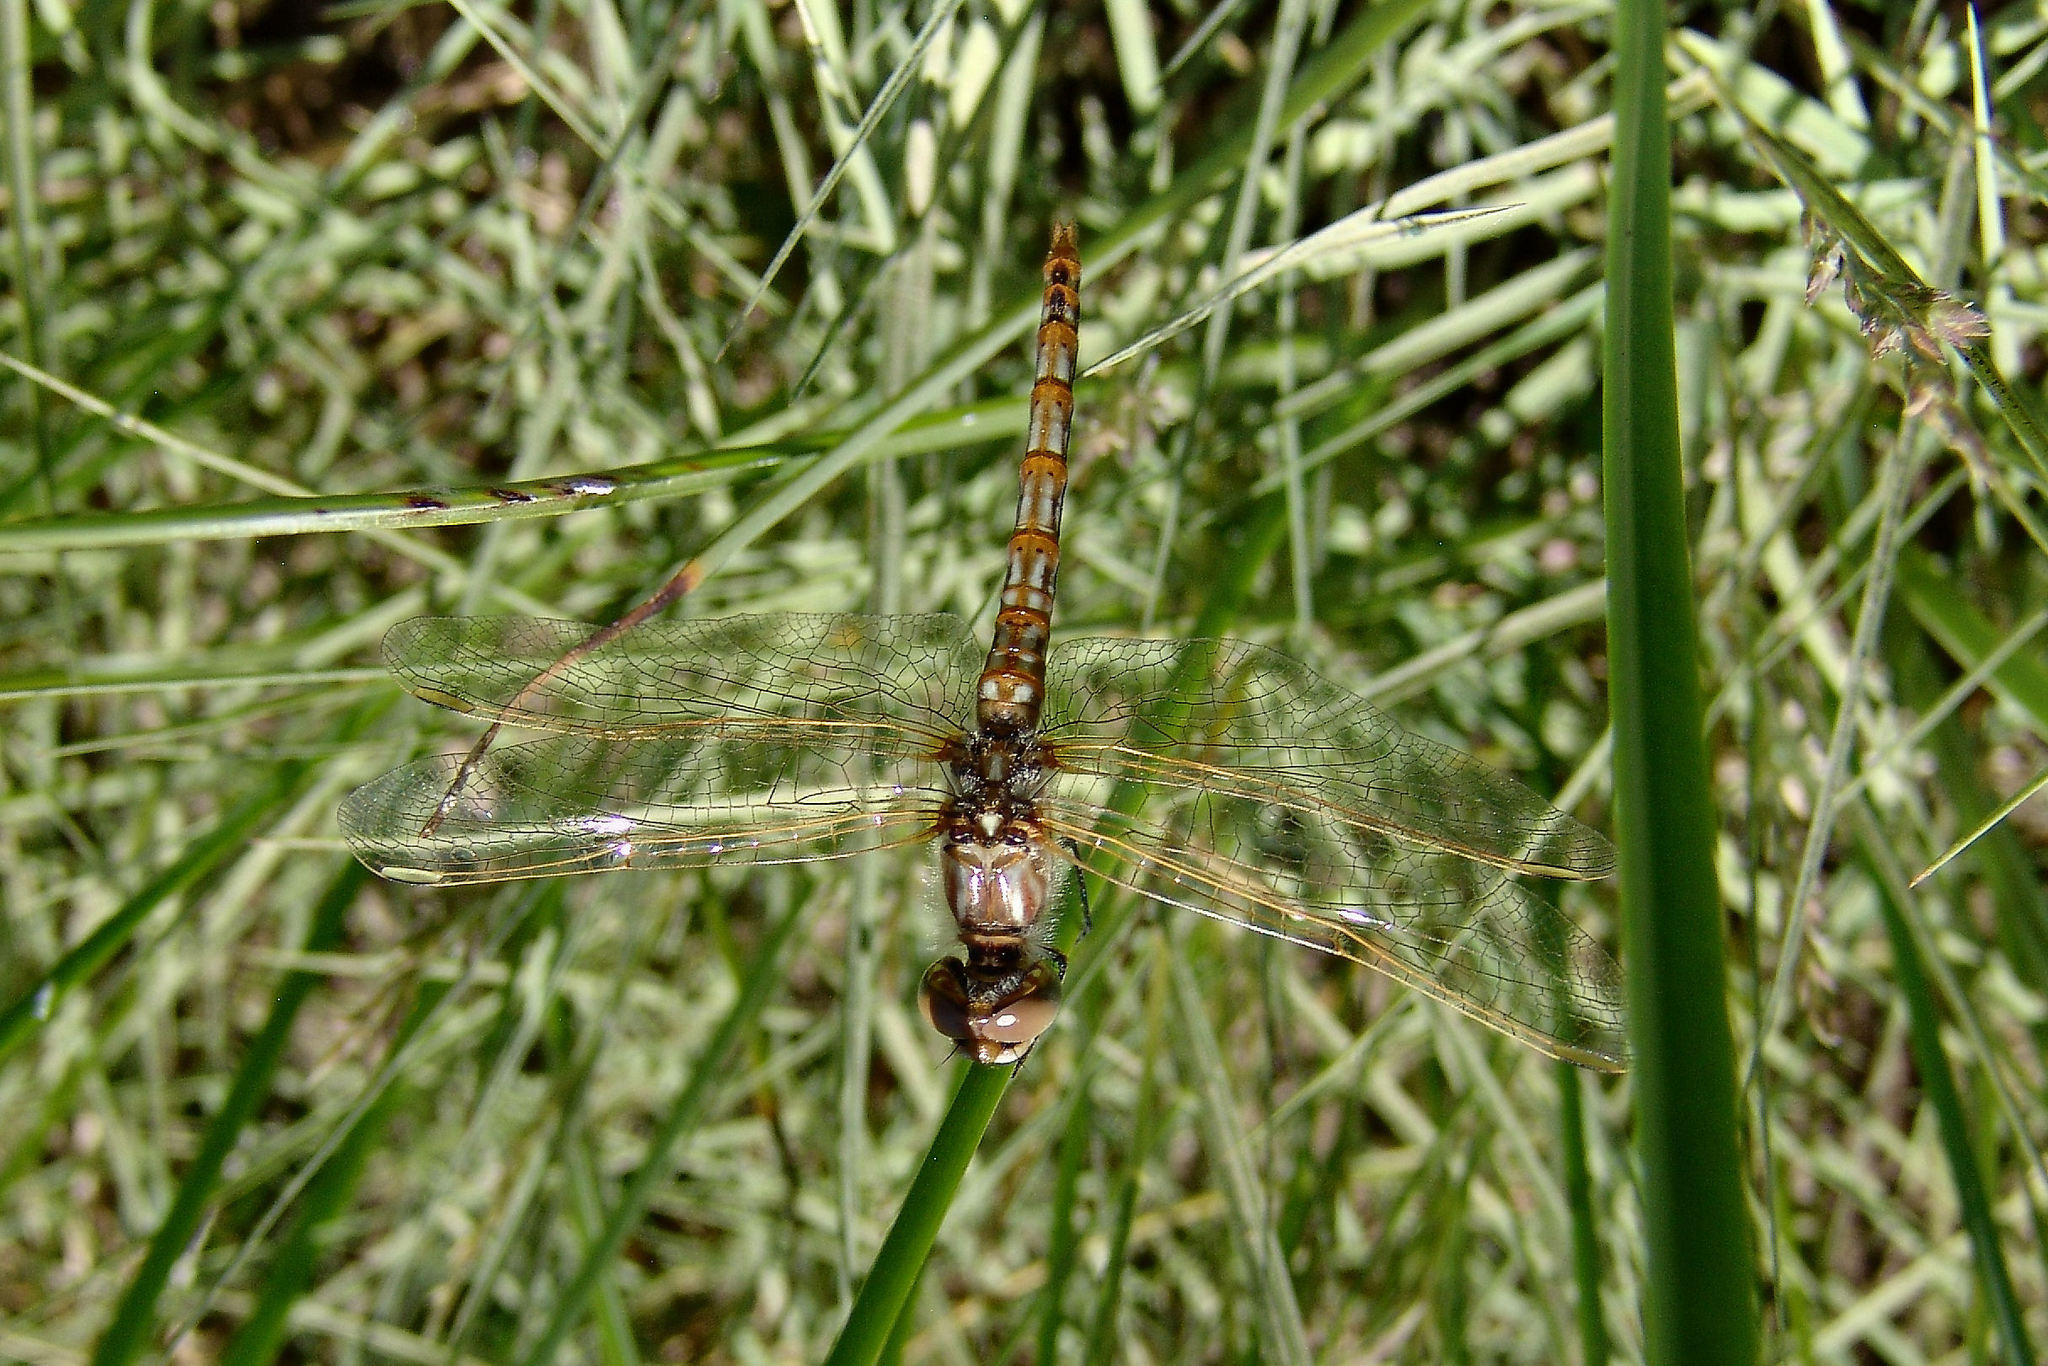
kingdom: Animalia
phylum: Arthropoda
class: Insecta
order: Odonata
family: Libellulidae
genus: Sympetrum
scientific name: Sympetrum corruptum
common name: Variegated meadowhawk
